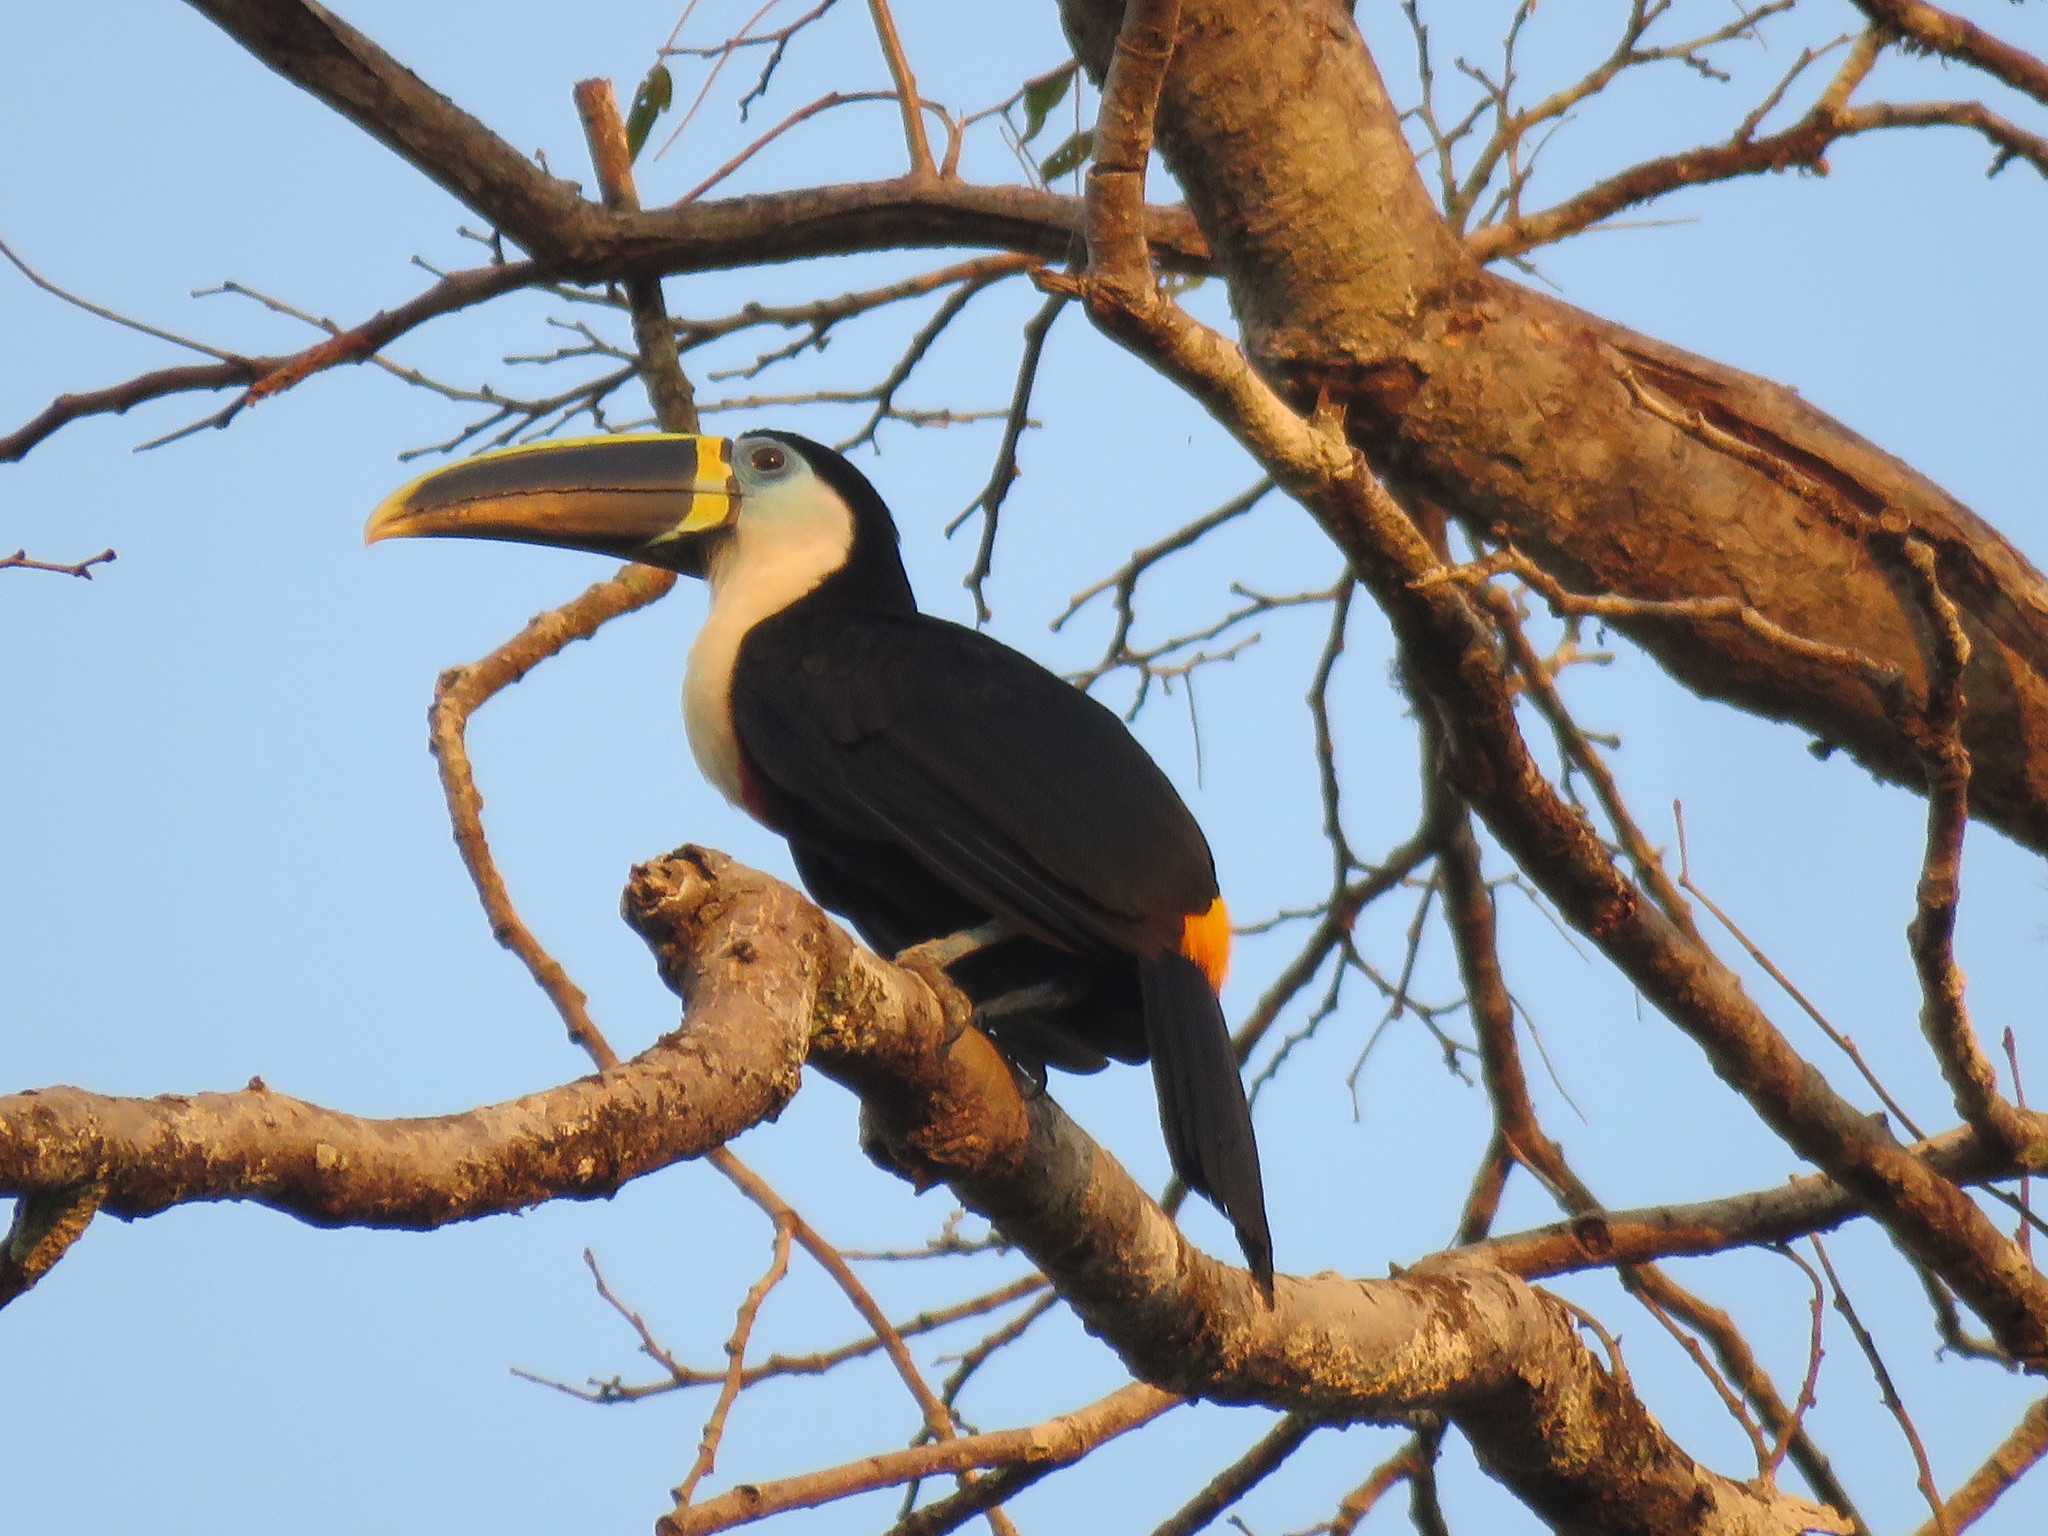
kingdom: Animalia
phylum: Chordata
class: Aves
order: Piciformes
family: Ramphastidae
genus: Ramphastos
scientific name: Ramphastos vitellinus
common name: Channel-billed toucan
